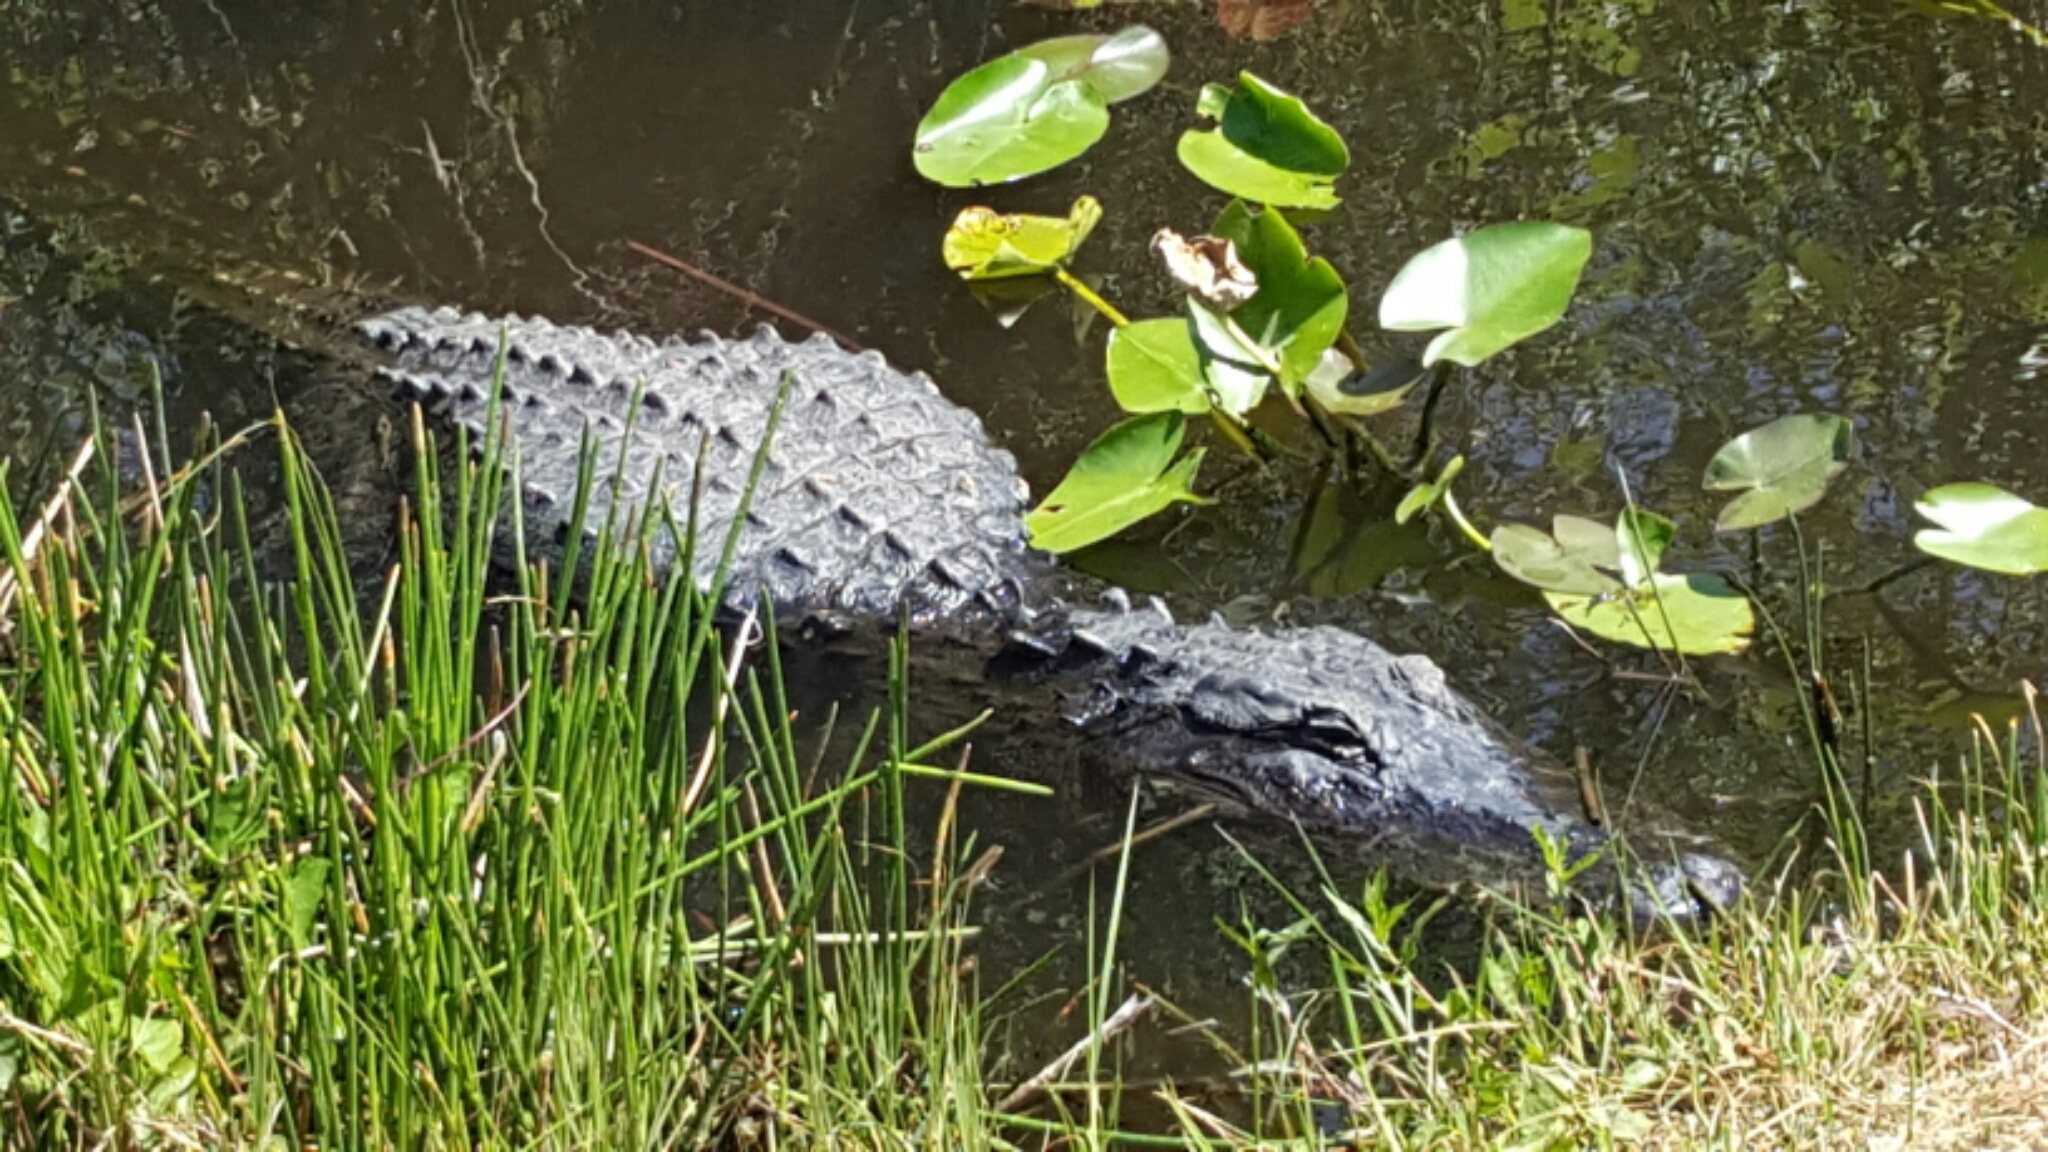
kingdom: Animalia
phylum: Chordata
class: Crocodylia
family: Alligatoridae
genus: Alligator
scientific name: Alligator mississippiensis
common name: American alligator
